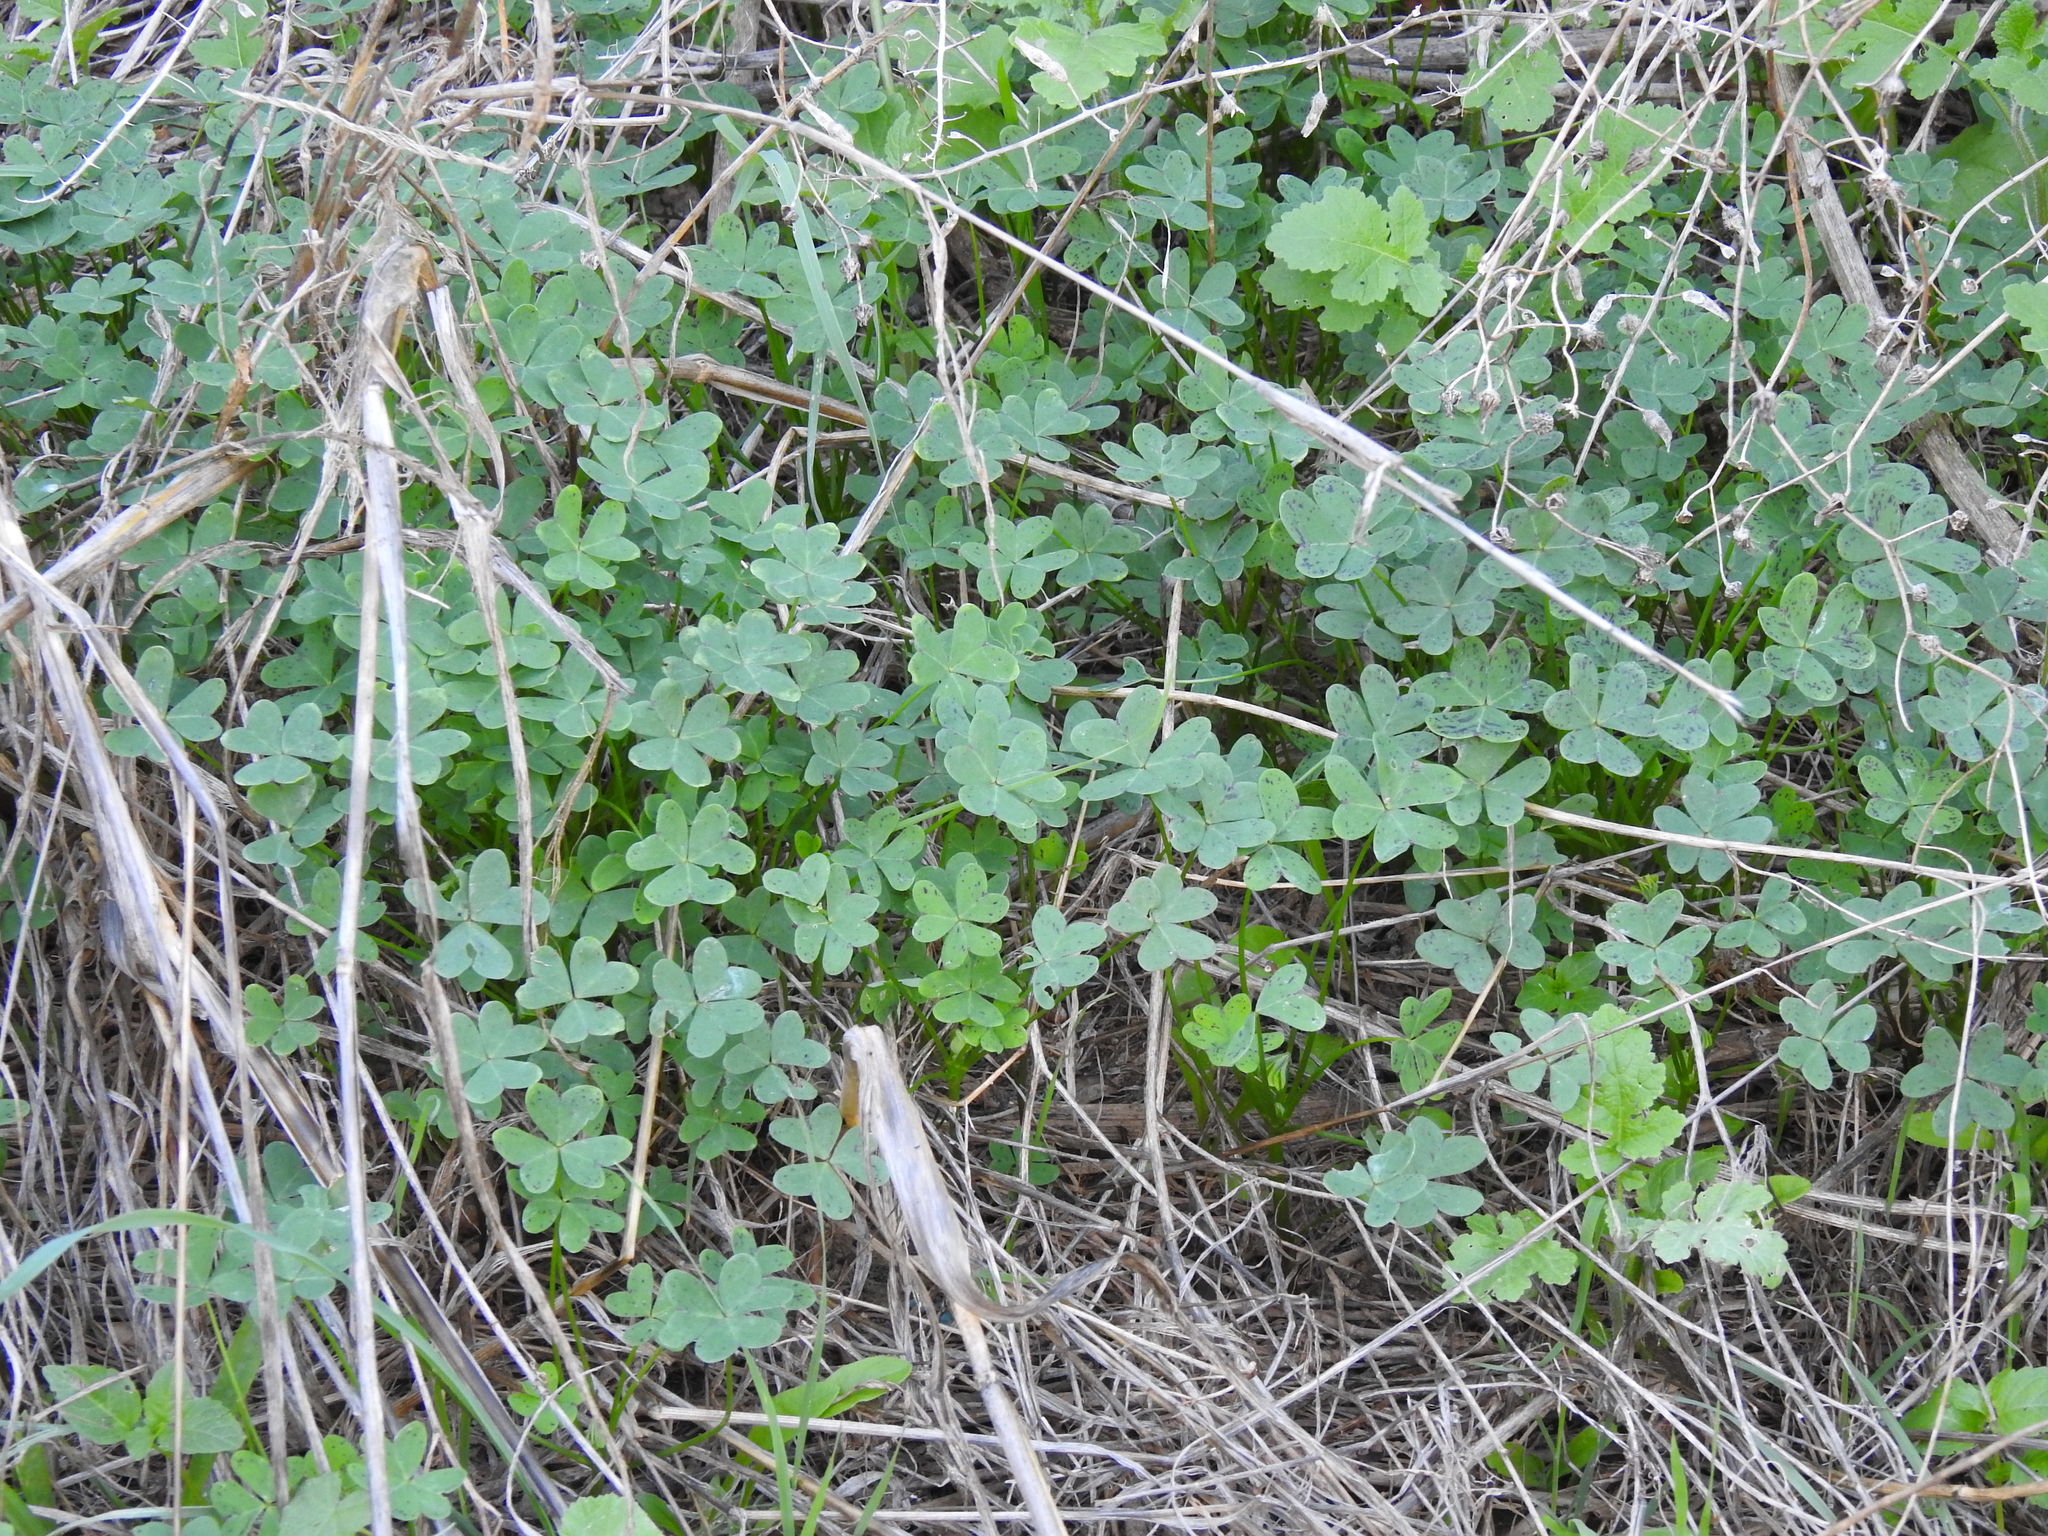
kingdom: Plantae
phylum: Tracheophyta
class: Magnoliopsida
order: Oxalidales
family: Oxalidaceae
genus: Oxalis
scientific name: Oxalis pes-caprae
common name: Bermuda-buttercup
